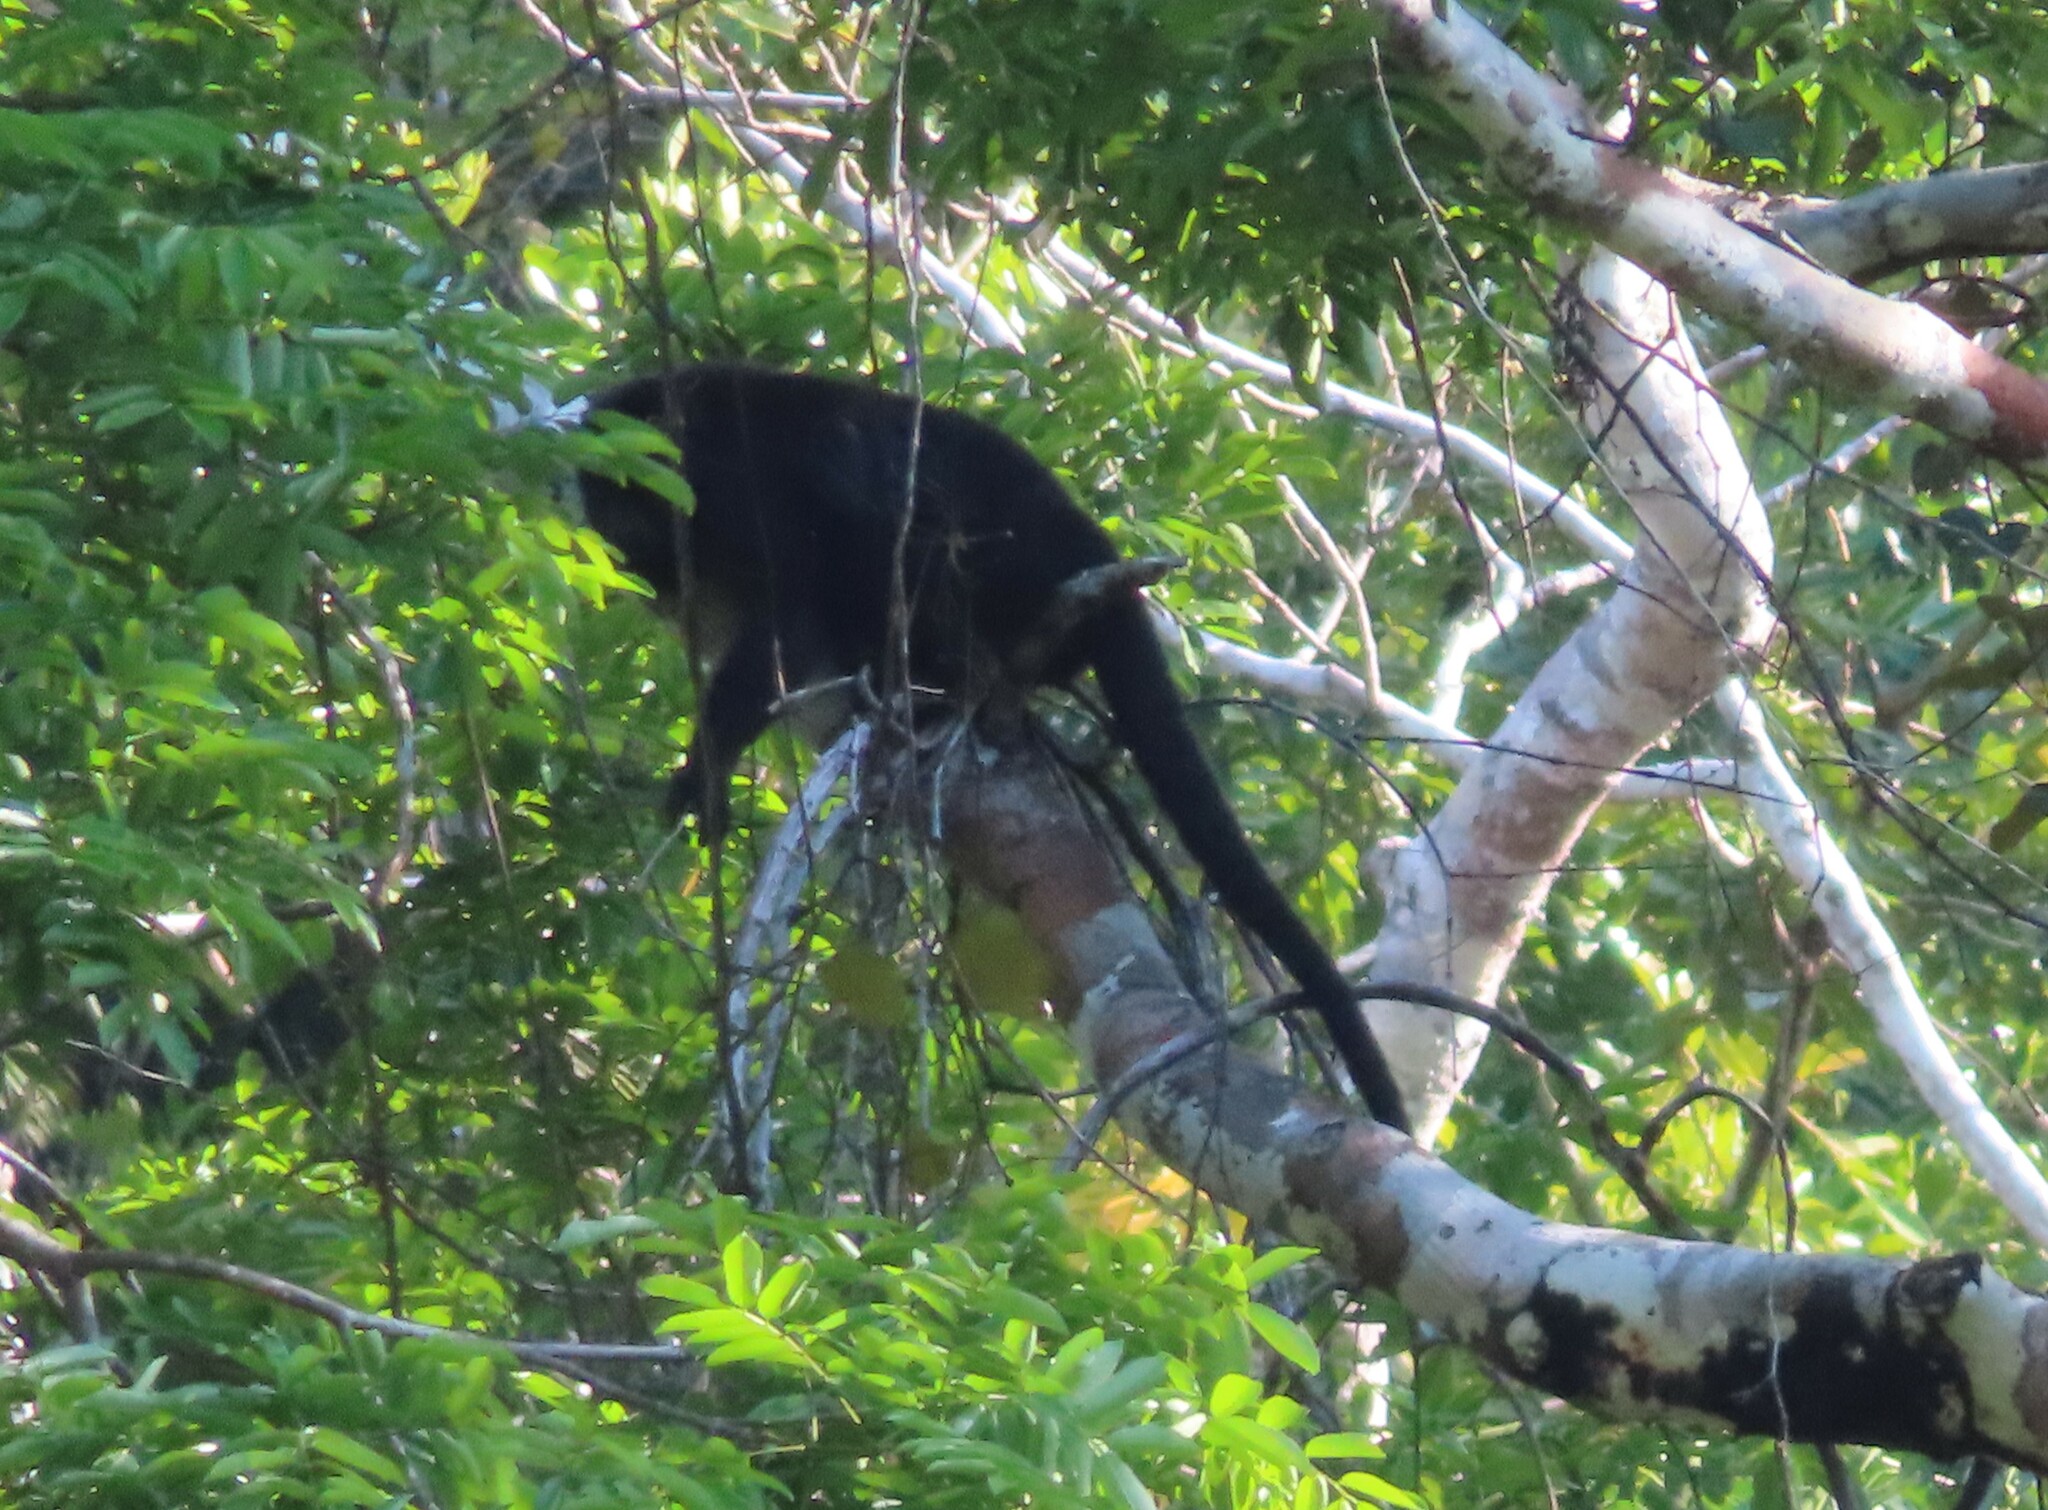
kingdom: Animalia
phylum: Chordata
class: Mammalia
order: Primates
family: Atelidae
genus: Alouatta
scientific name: Alouatta pigra
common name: Guatemalan black howler
